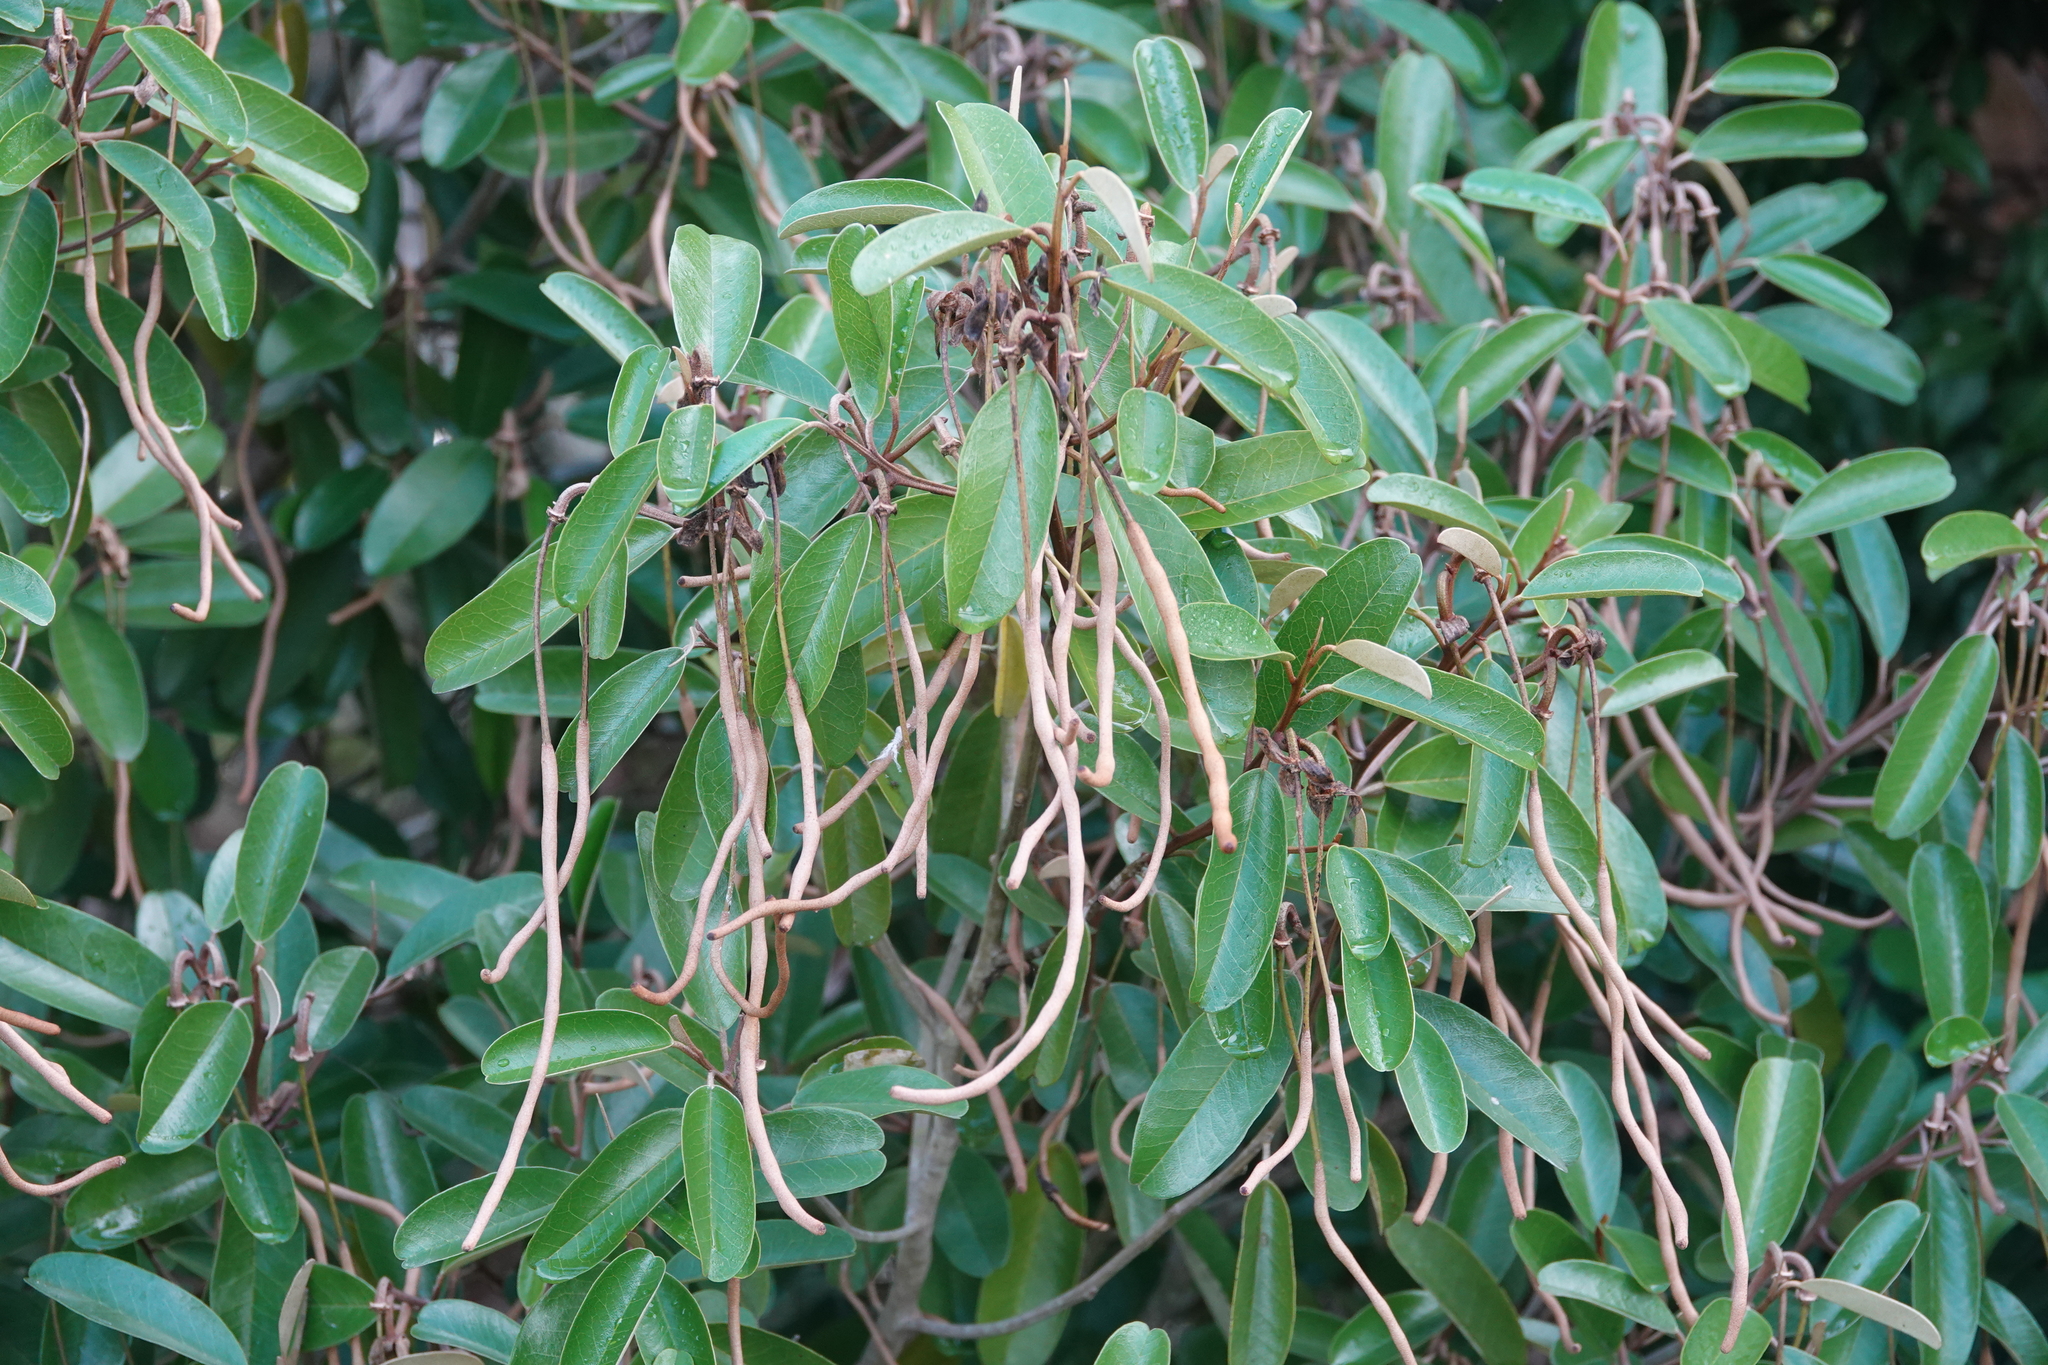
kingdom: Plantae
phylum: Tracheophyta
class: Magnoliopsida
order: Brassicales
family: Capparaceae
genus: Quadrella
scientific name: Quadrella cynophallophora
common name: Black willow
